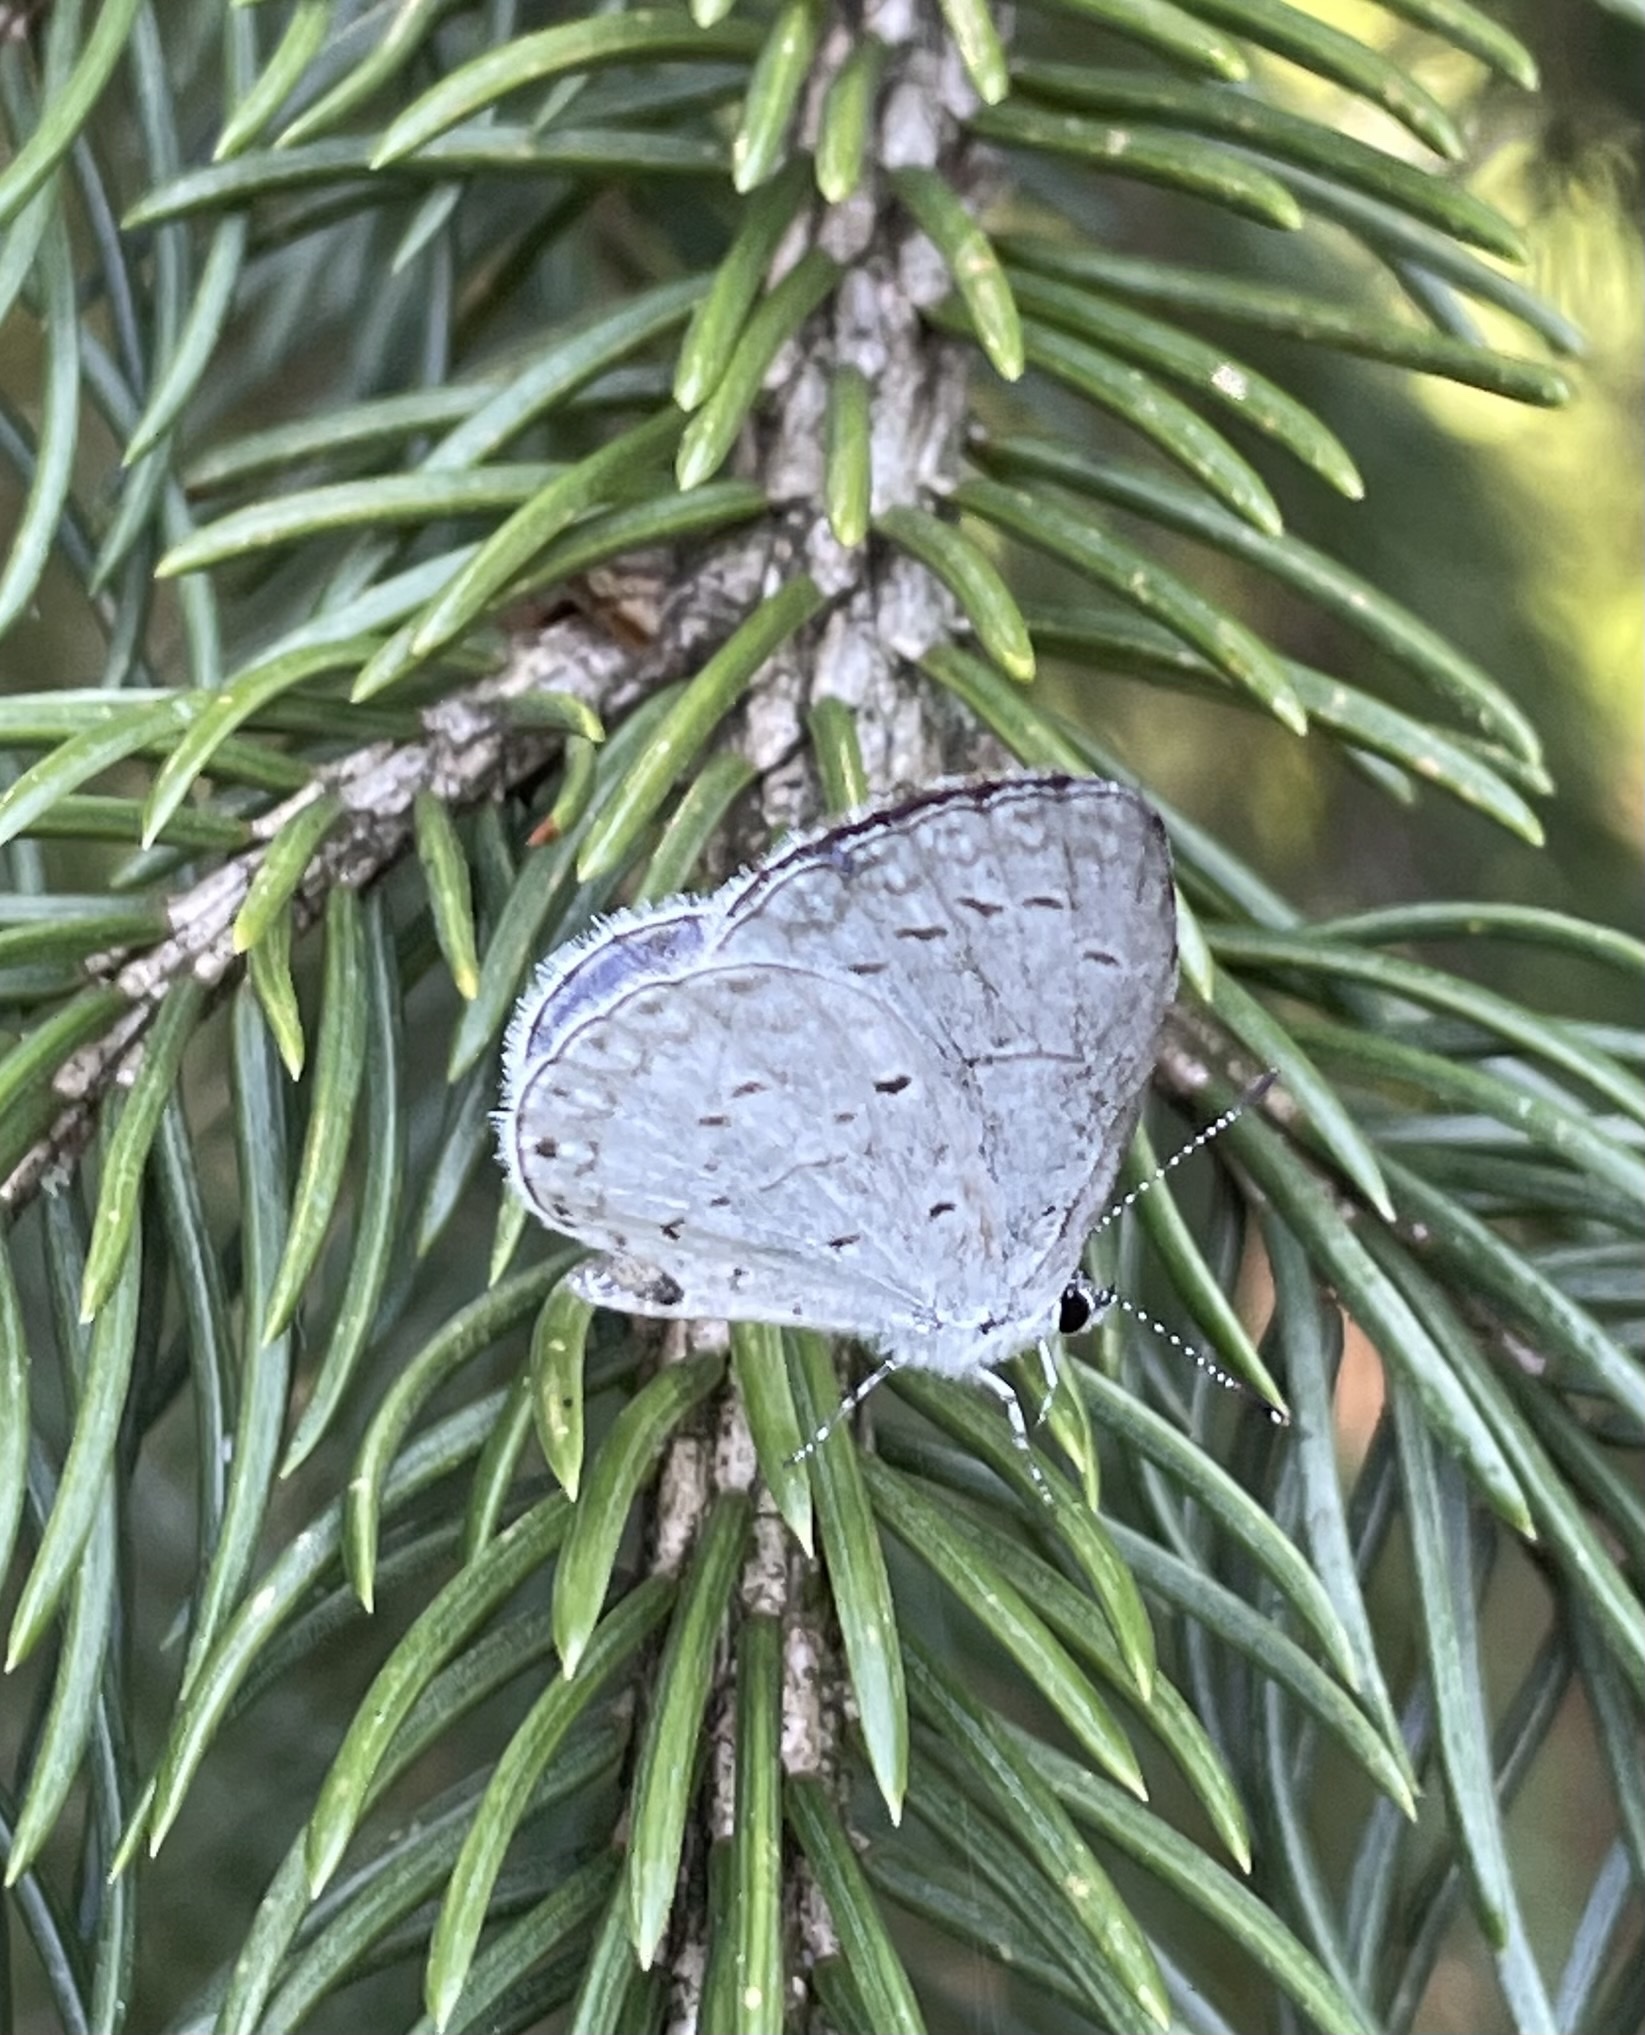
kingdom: Animalia
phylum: Arthropoda
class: Insecta
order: Lepidoptera
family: Lycaenidae
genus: Cyaniris
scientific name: Cyaniris neglecta
